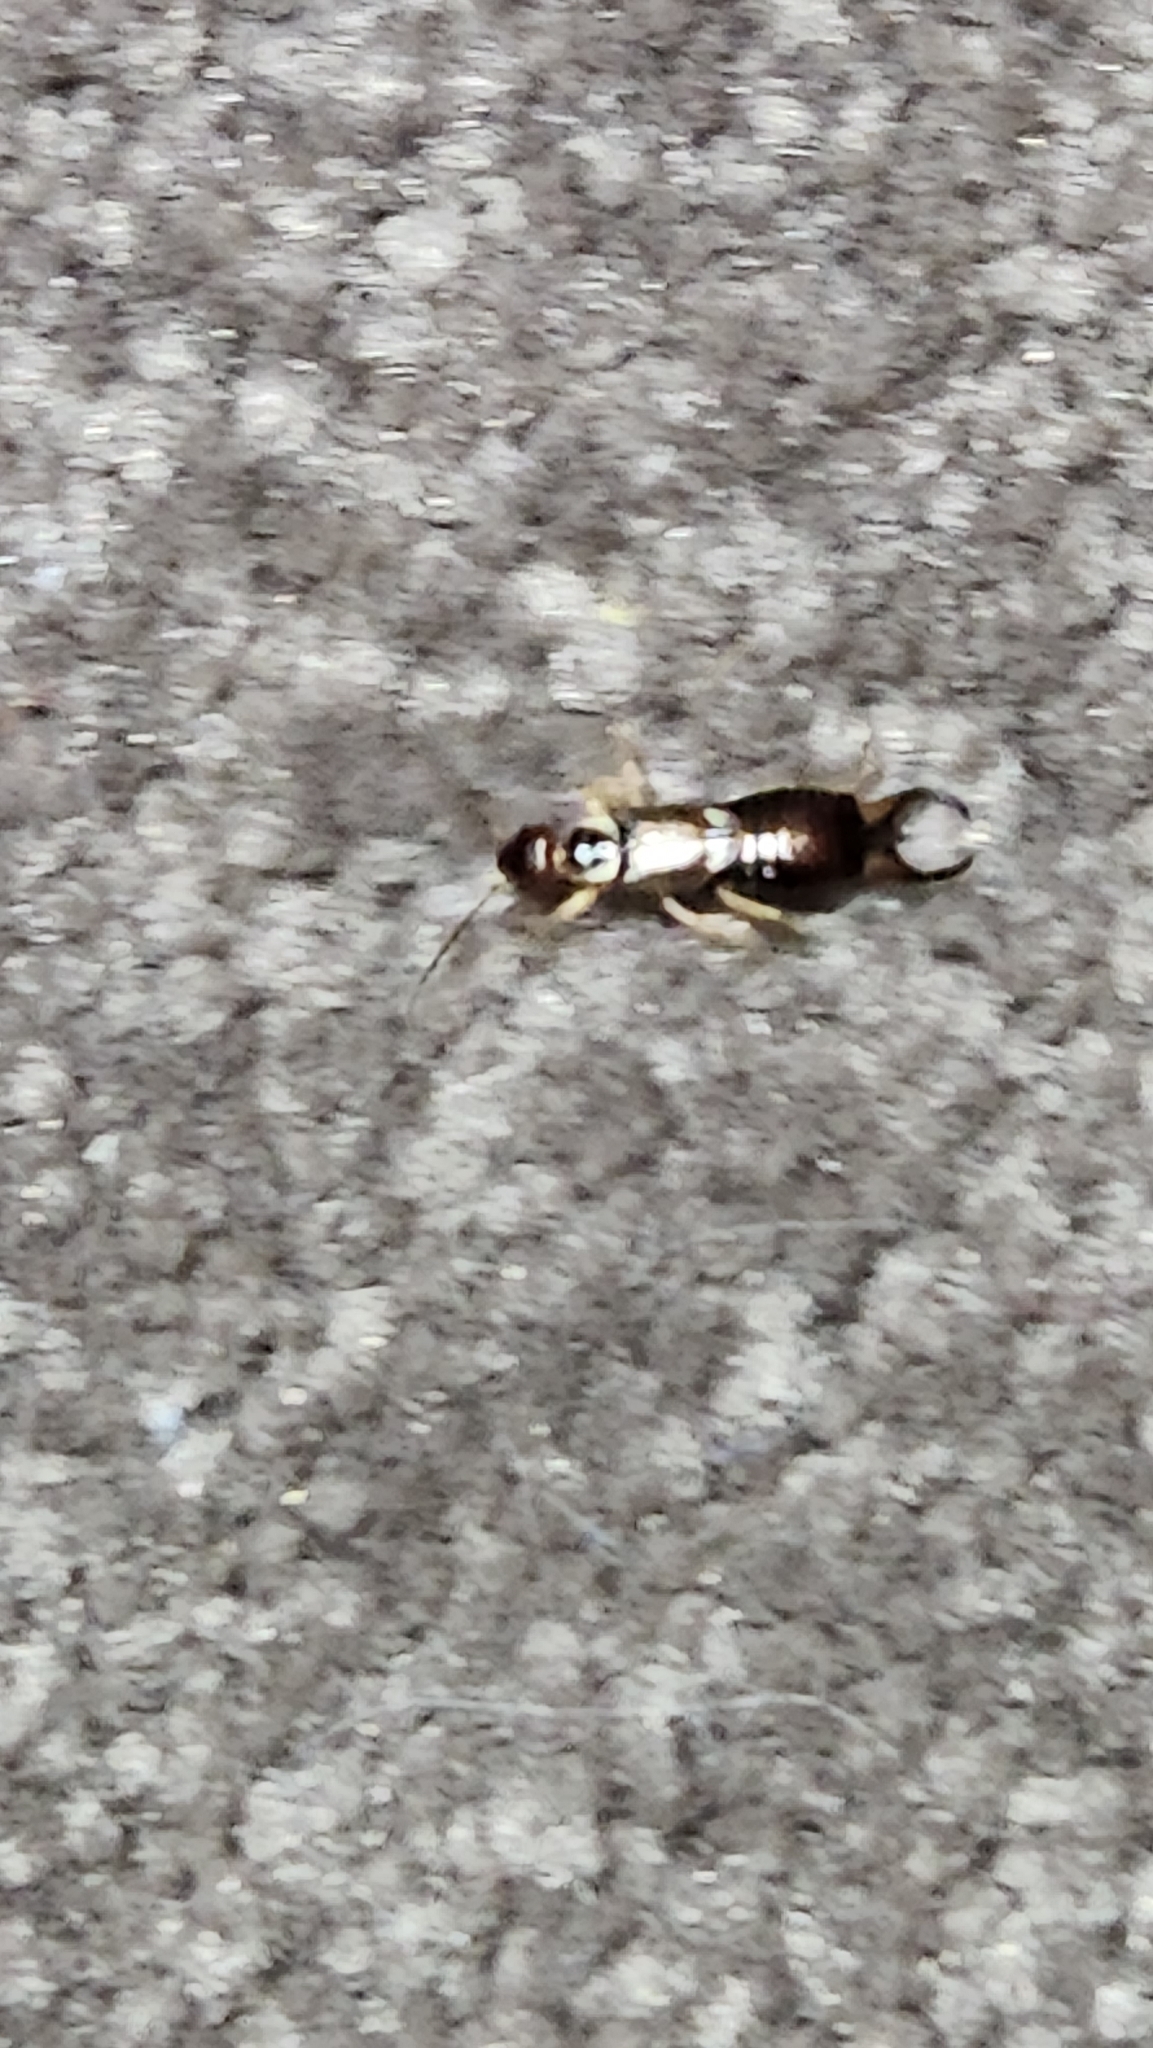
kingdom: Animalia
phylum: Arthropoda
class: Insecta
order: Dermaptera
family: Forficulidae
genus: Forficula
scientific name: Forficula
